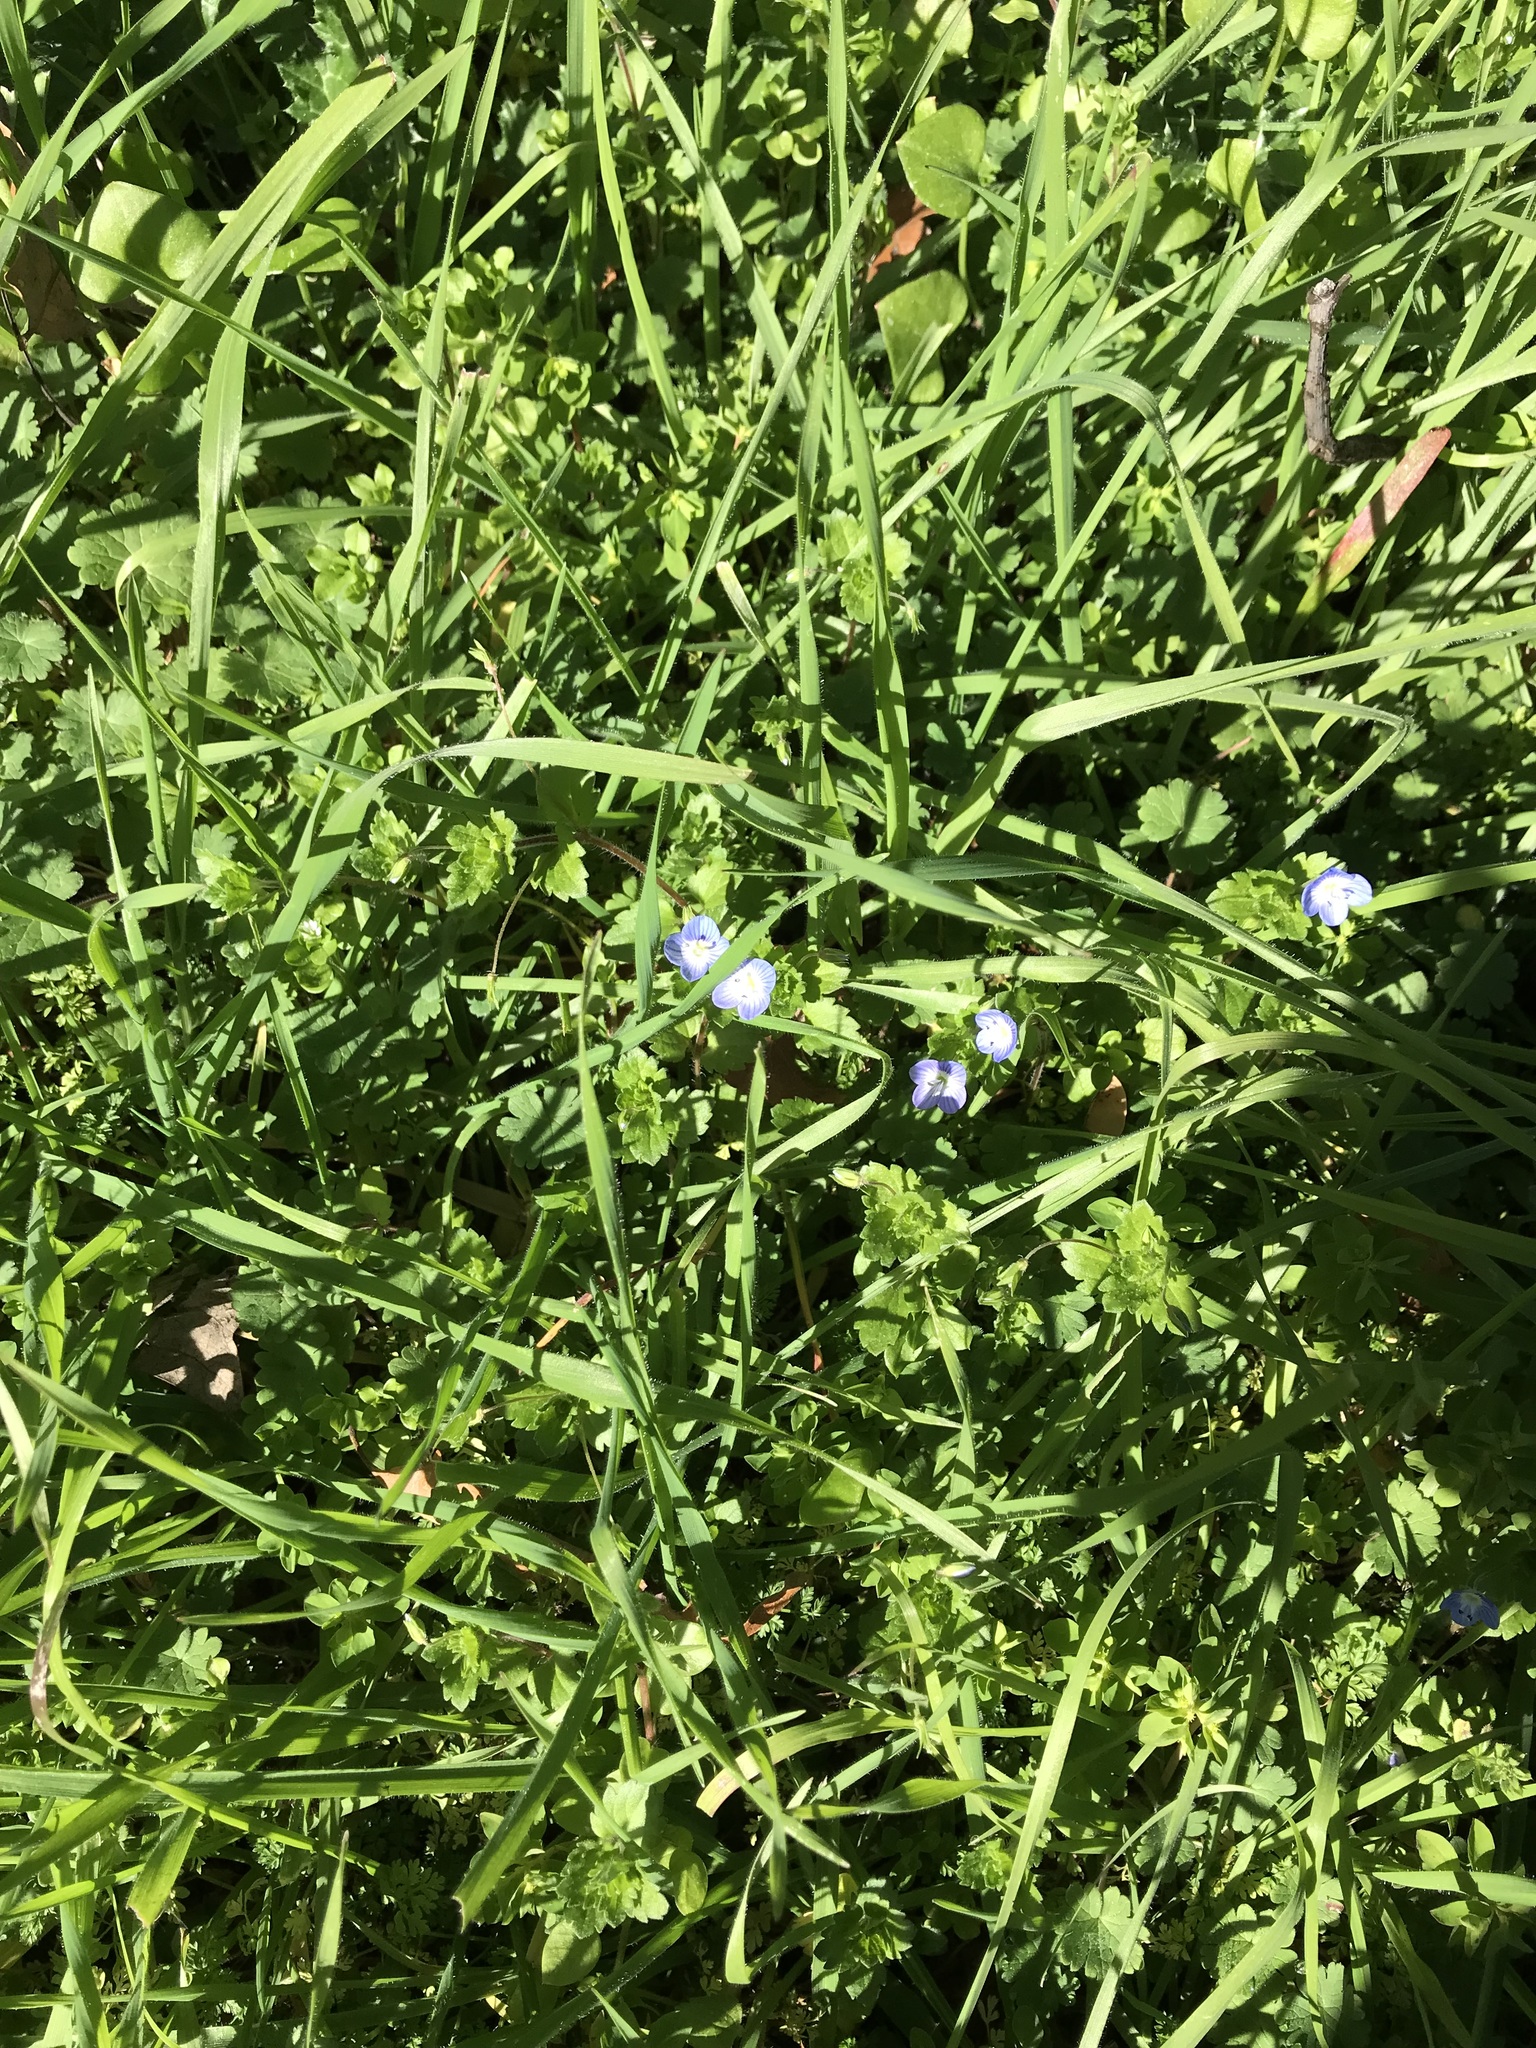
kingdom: Plantae
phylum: Tracheophyta
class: Magnoliopsida
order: Lamiales
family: Plantaginaceae
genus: Veronica
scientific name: Veronica persica
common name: Common field-speedwell
